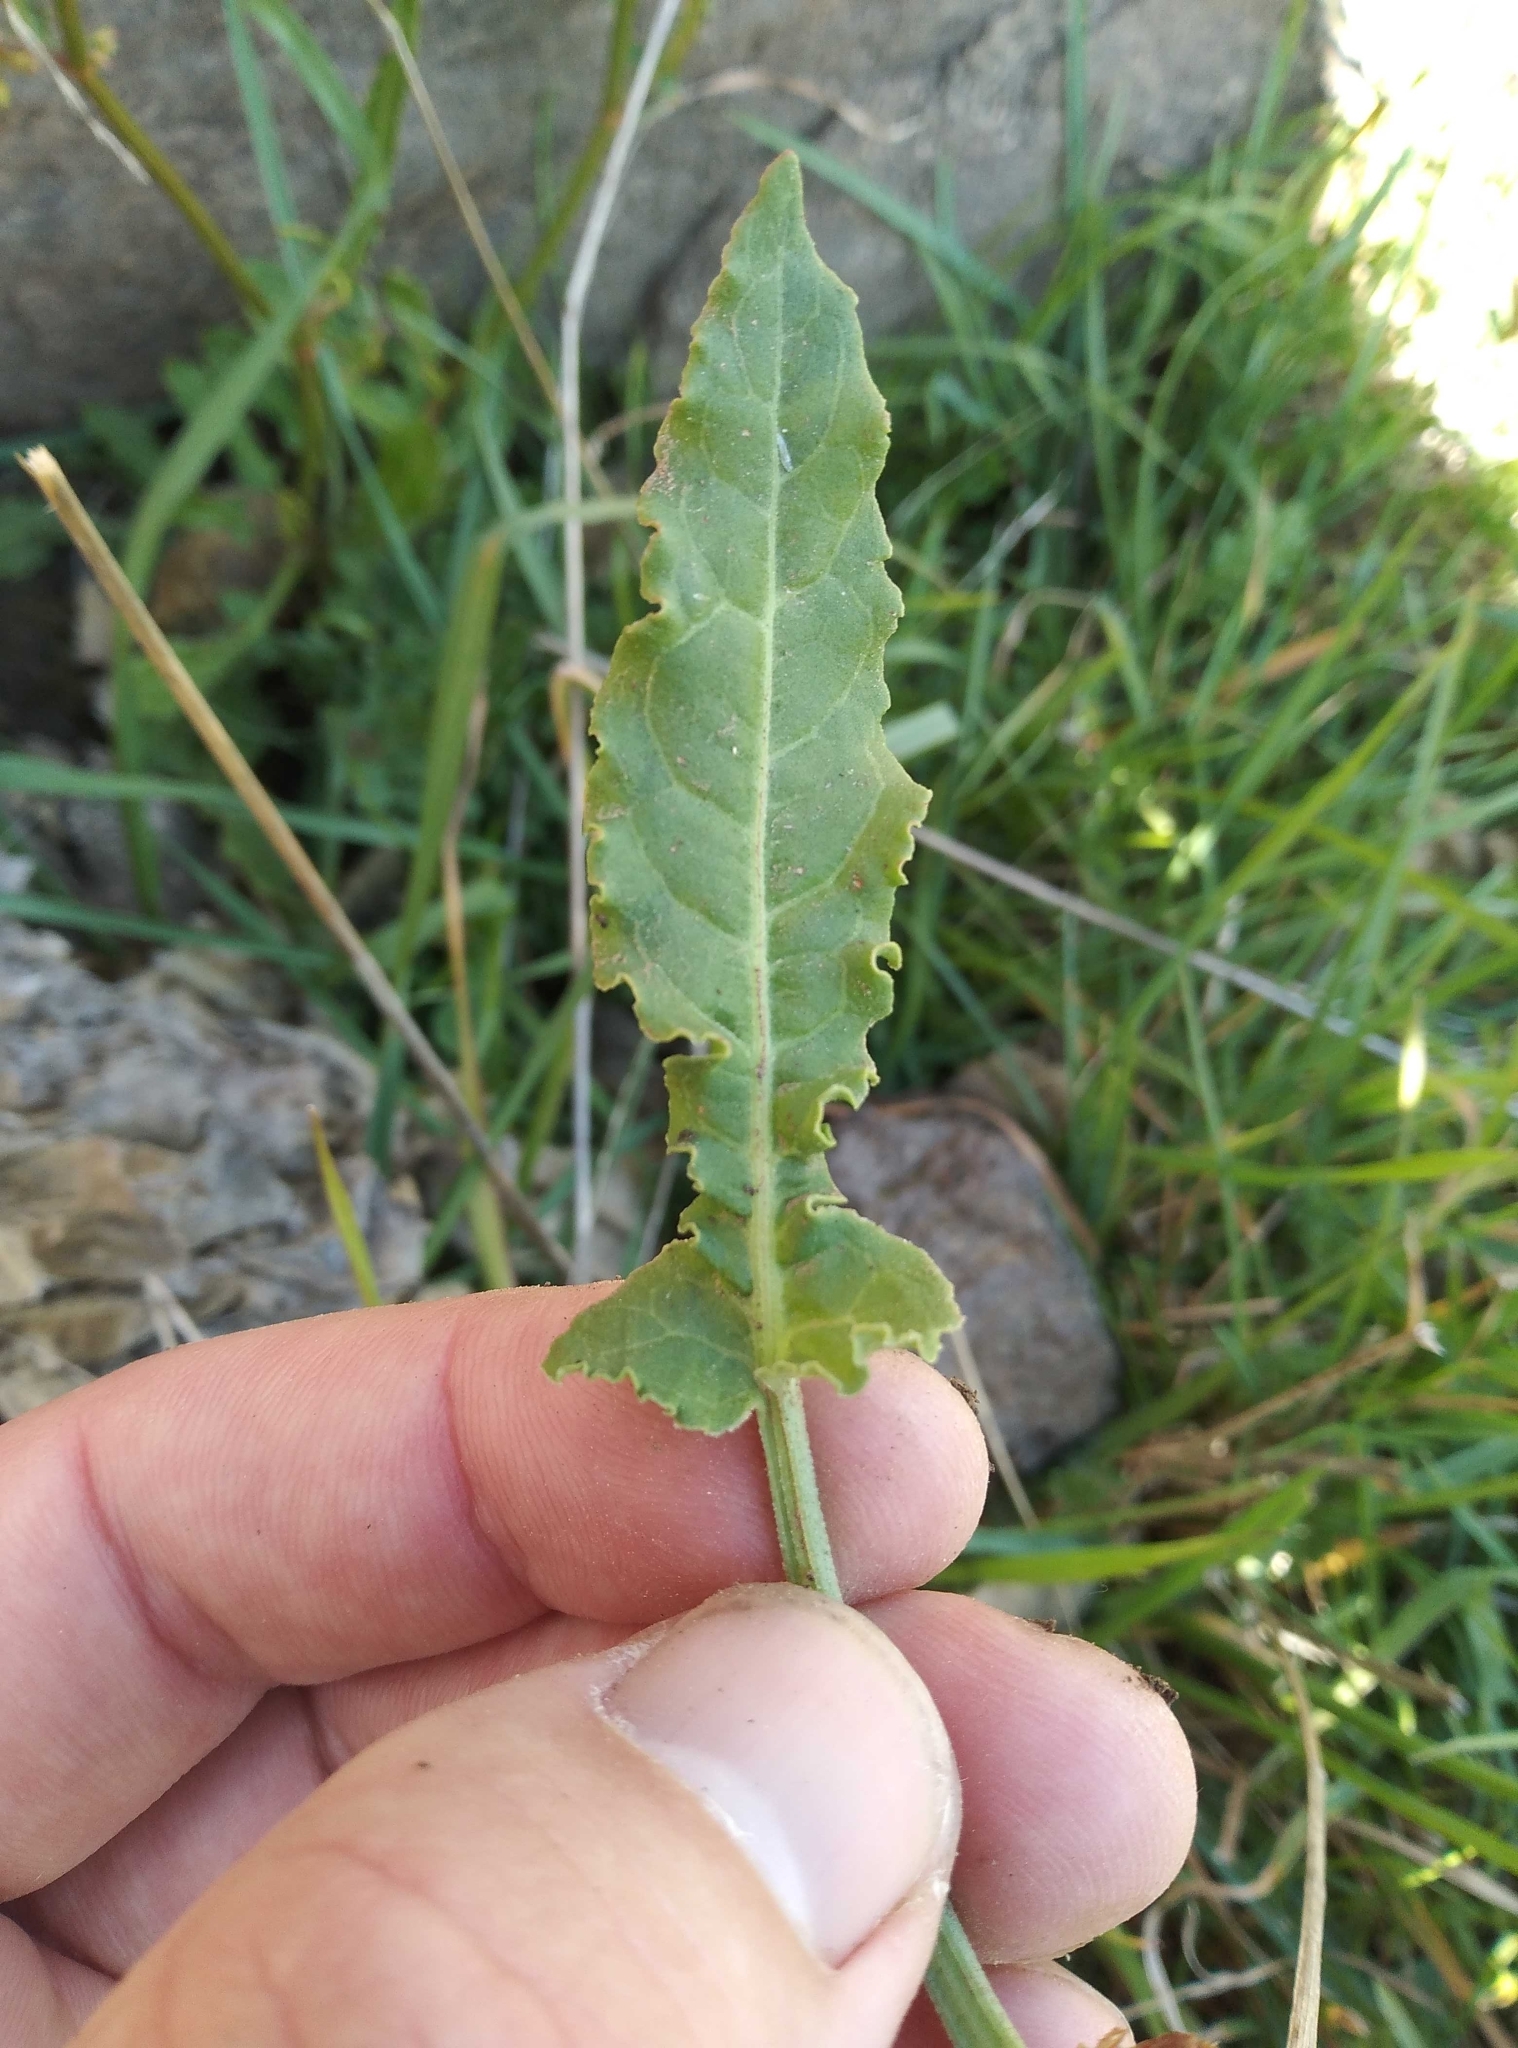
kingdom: Plantae
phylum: Tracheophyta
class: Magnoliopsida
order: Caryophyllales
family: Polygonaceae
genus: Rumex
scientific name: Rumex brownii
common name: Hooked dock
